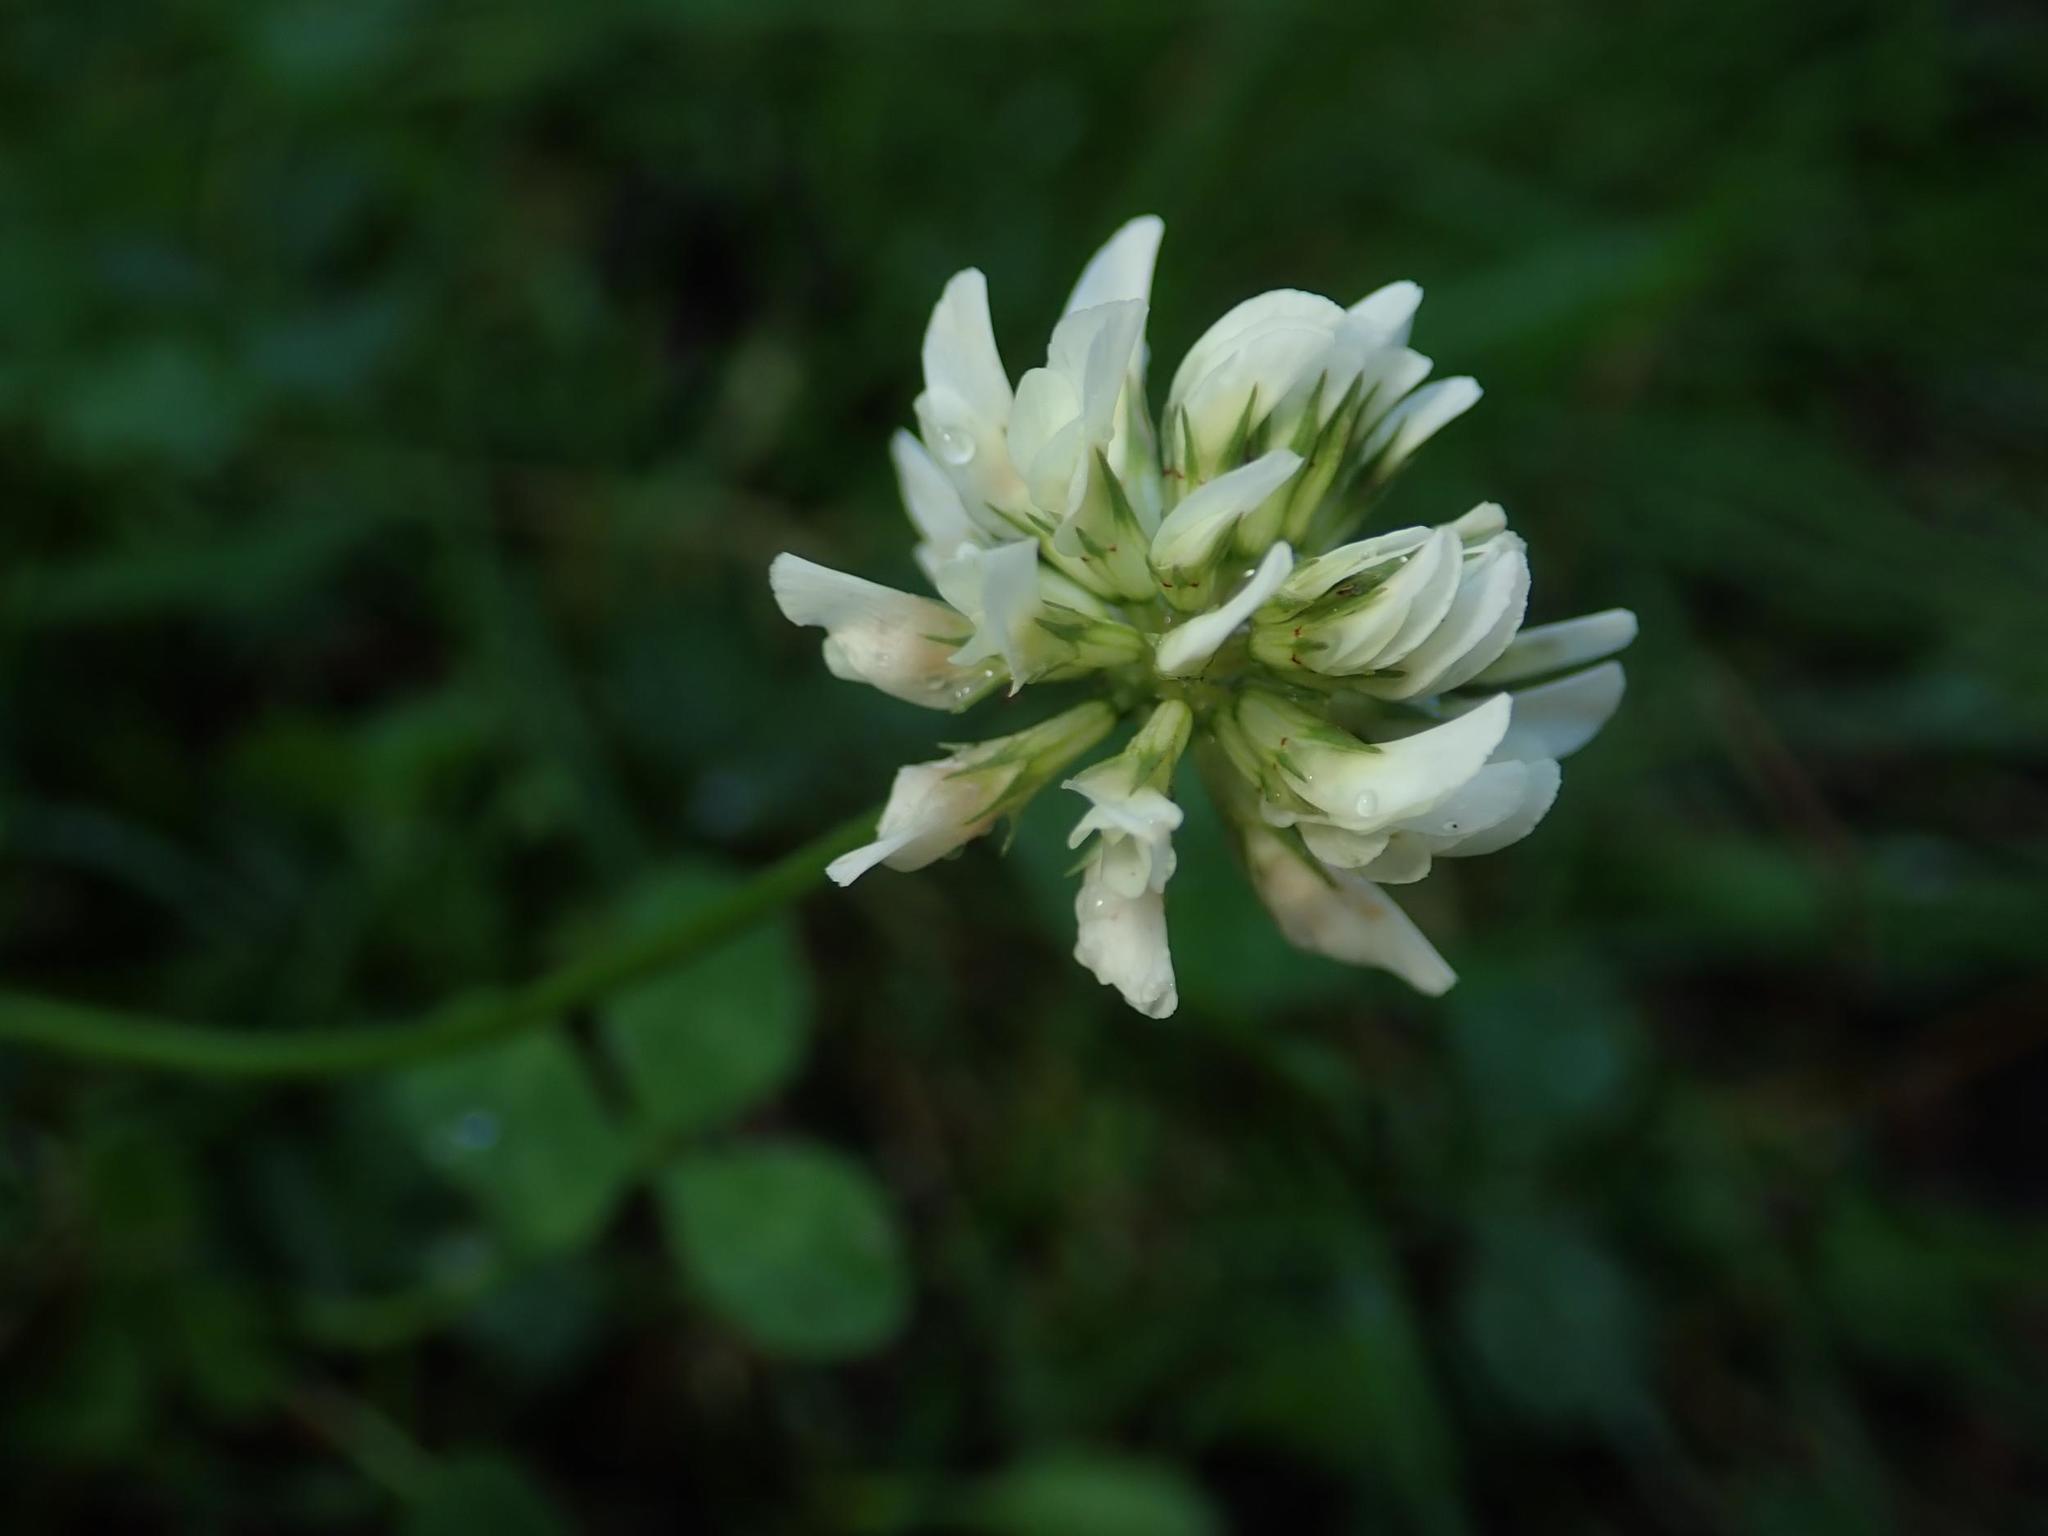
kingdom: Plantae
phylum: Tracheophyta
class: Magnoliopsida
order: Fabales
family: Fabaceae
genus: Trifolium
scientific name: Trifolium repens
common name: White clover
